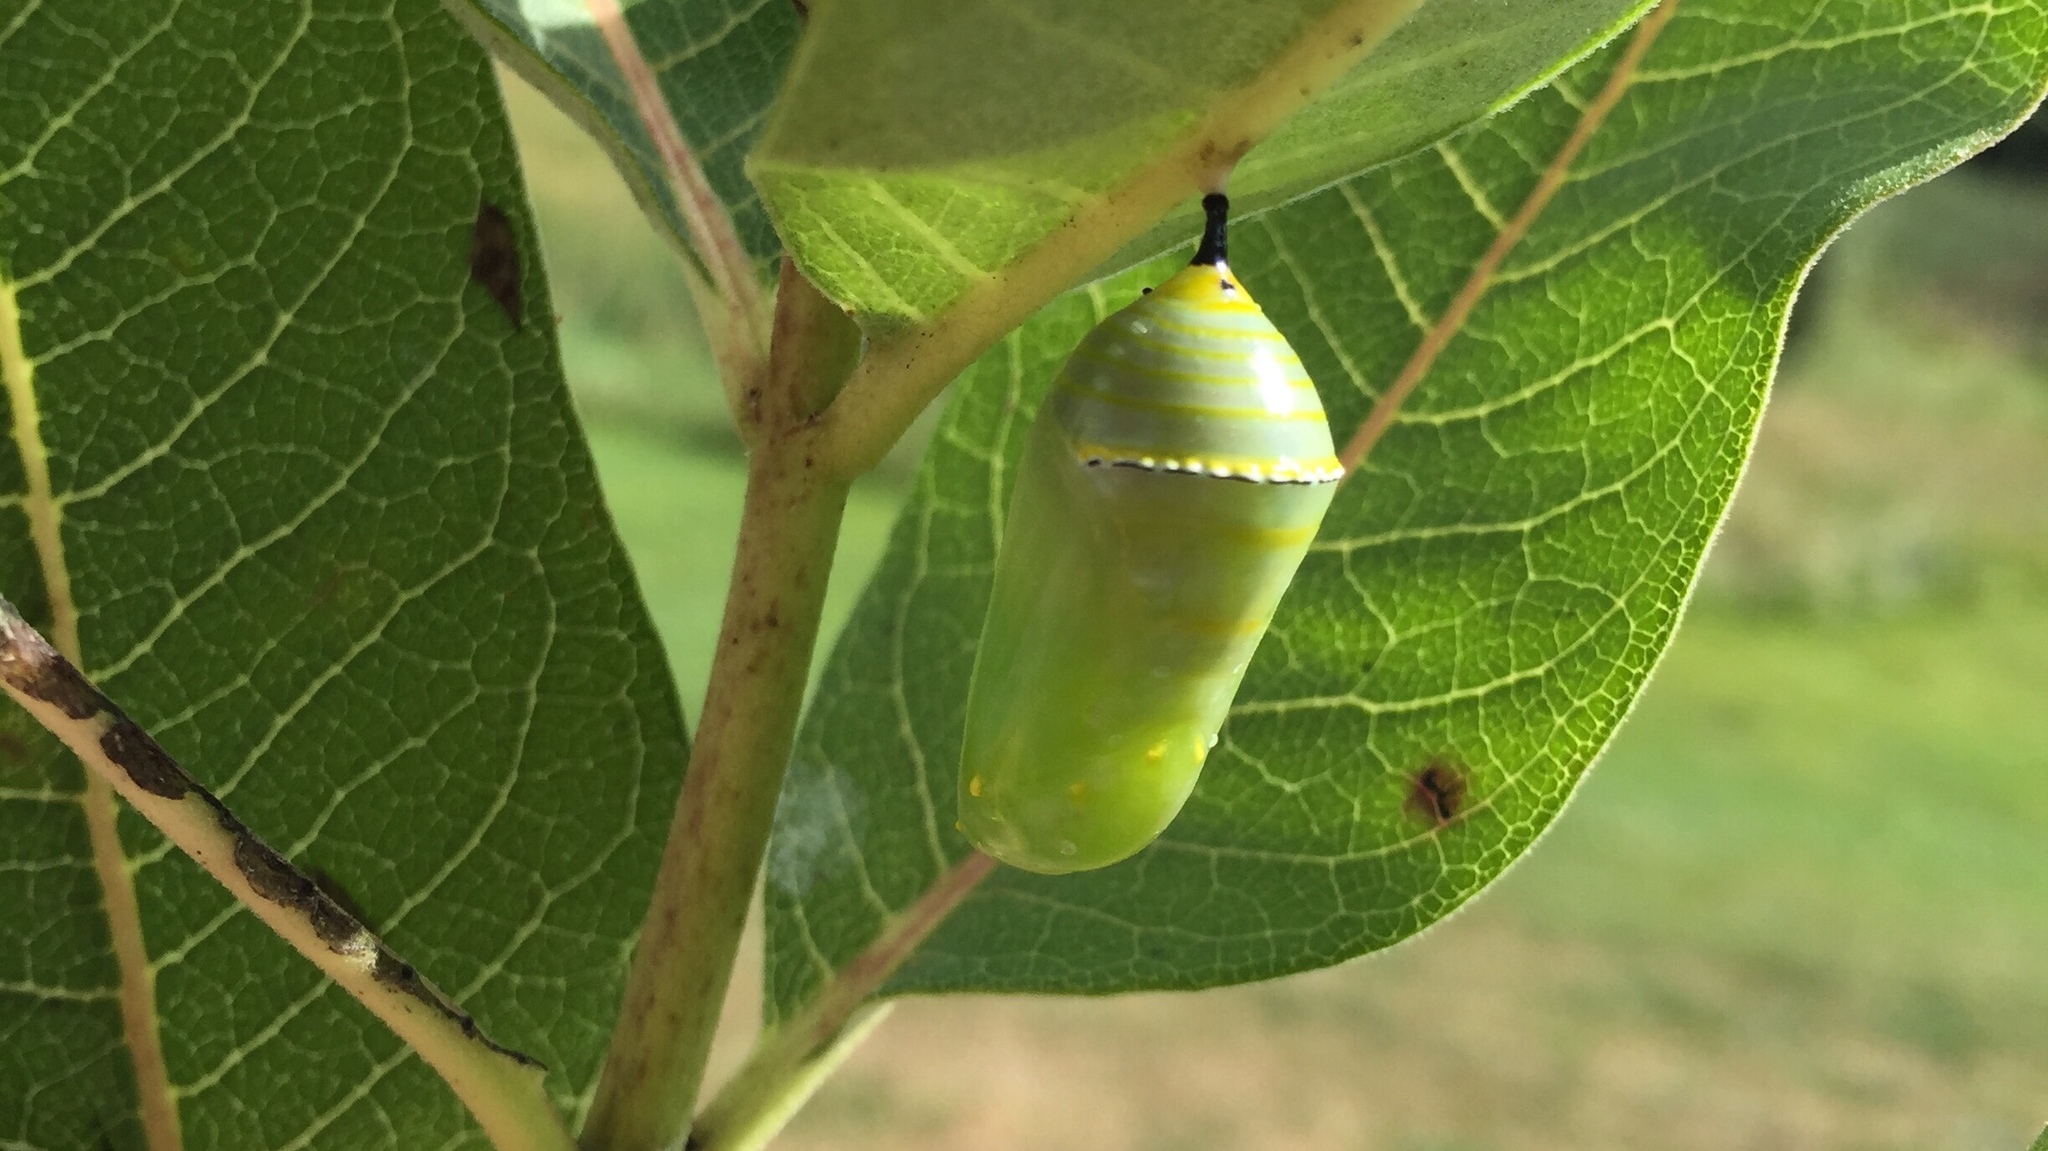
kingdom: Animalia
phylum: Arthropoda
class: Insecta
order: Lepidoptera
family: Nymphalidae
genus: Danaus
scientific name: Danaus plexippus
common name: Monarch
